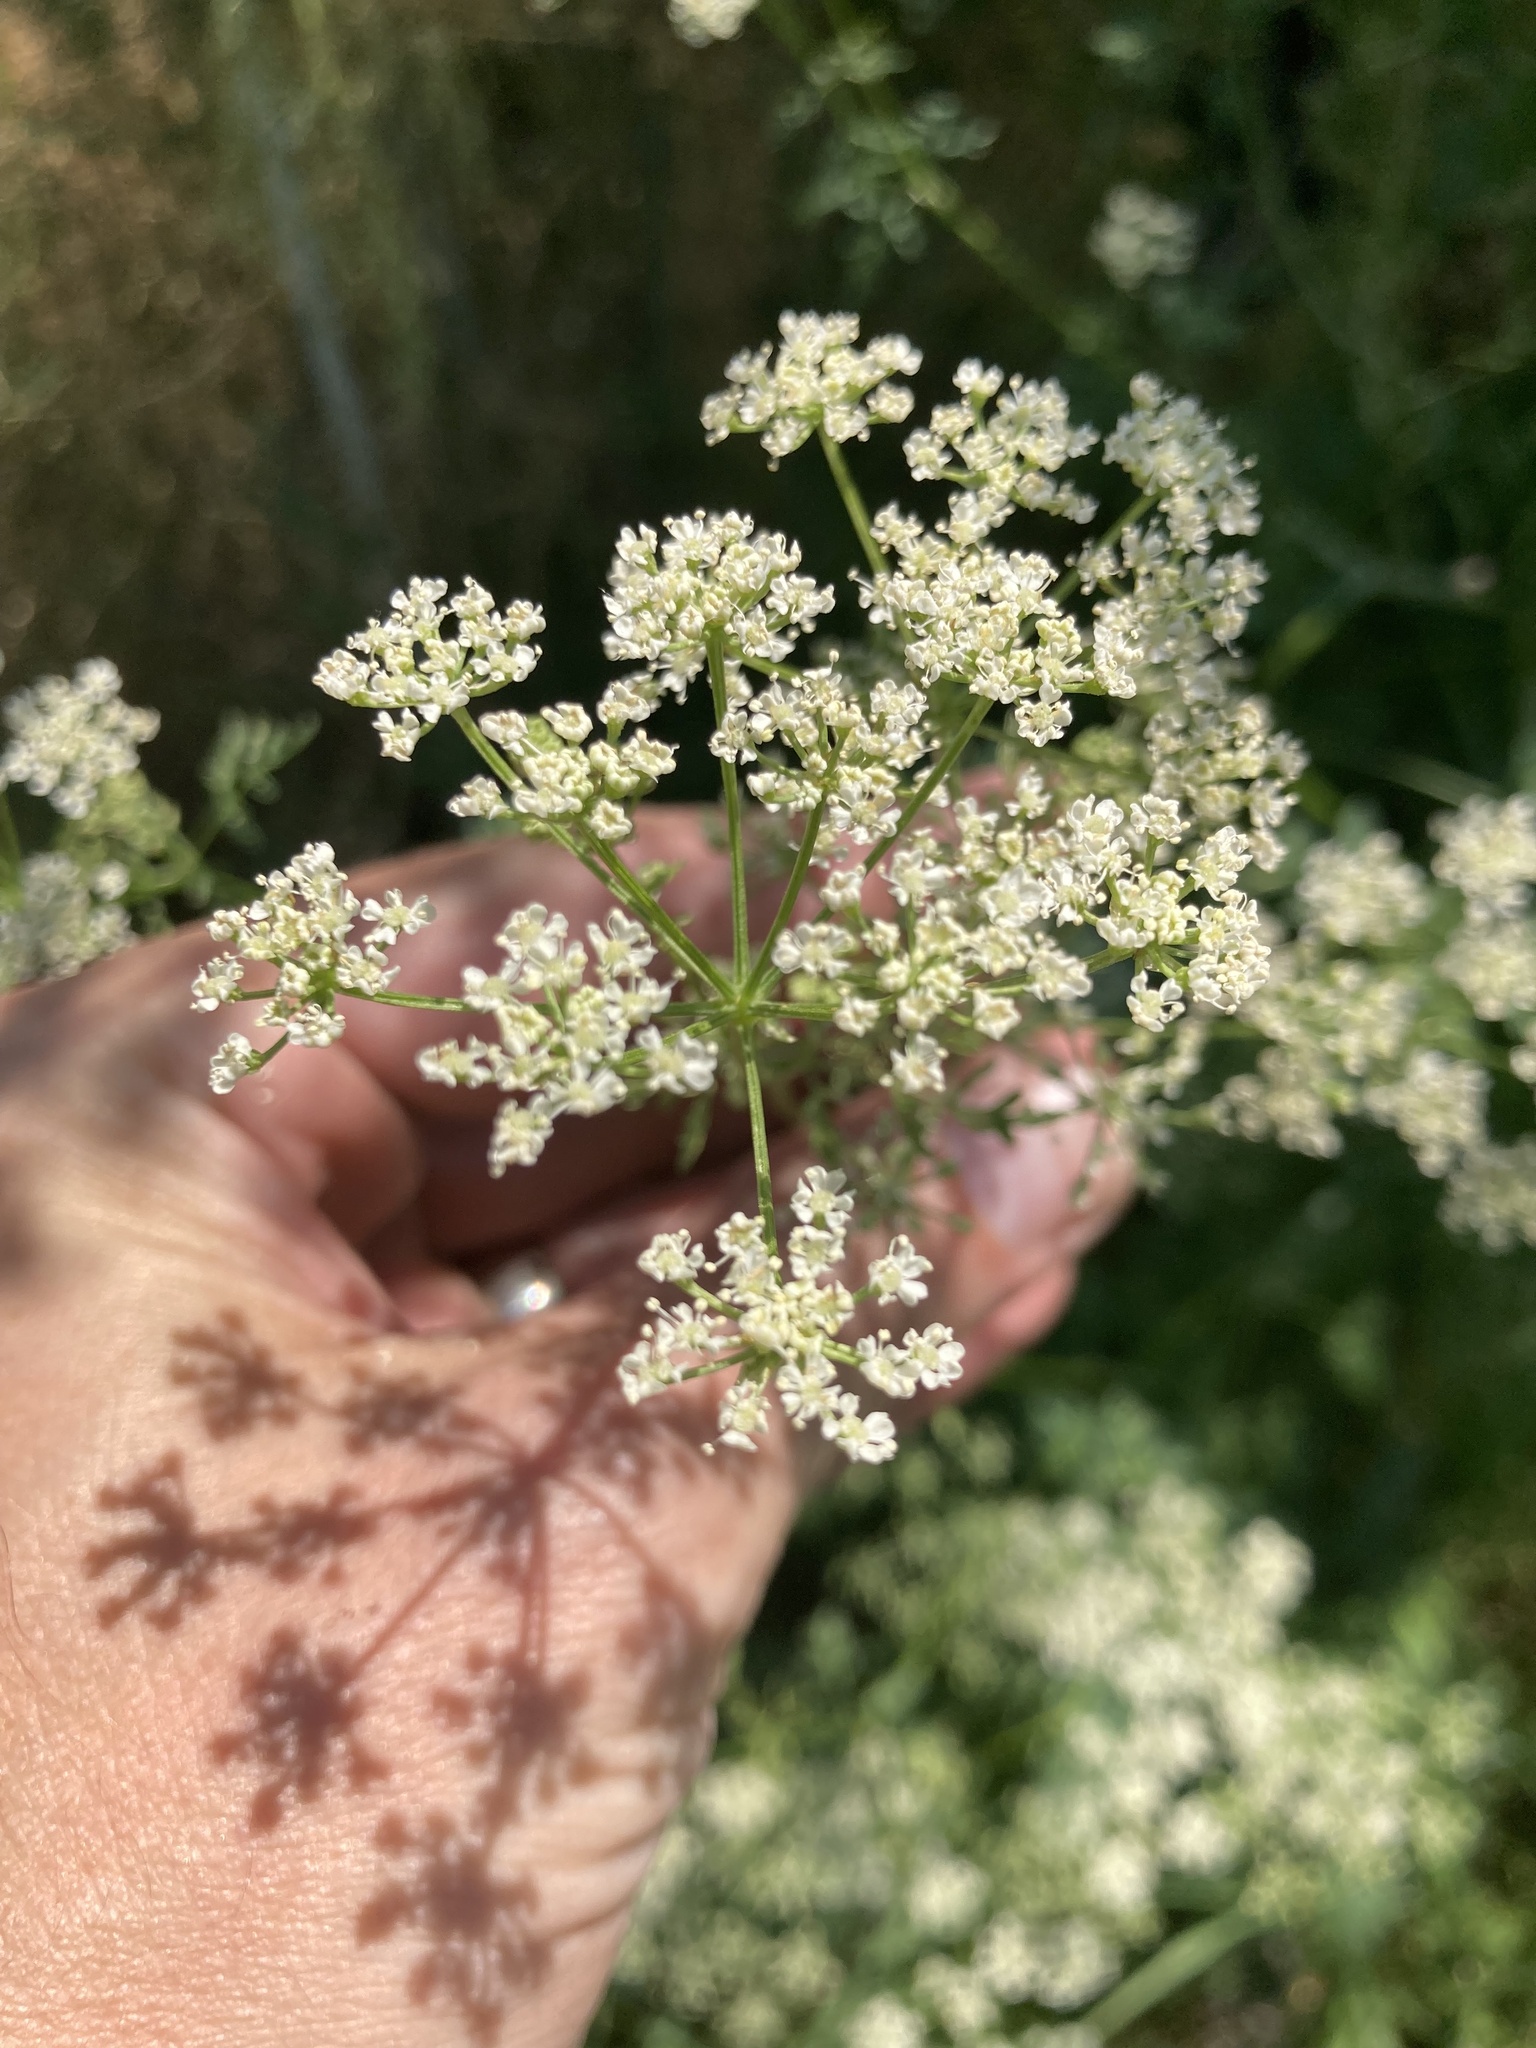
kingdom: Plantae
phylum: Tracheophyta
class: Magnoliopsida
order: Apiales
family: Apiaceae
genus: Conium
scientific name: Conium maculatum
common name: Hemlock
